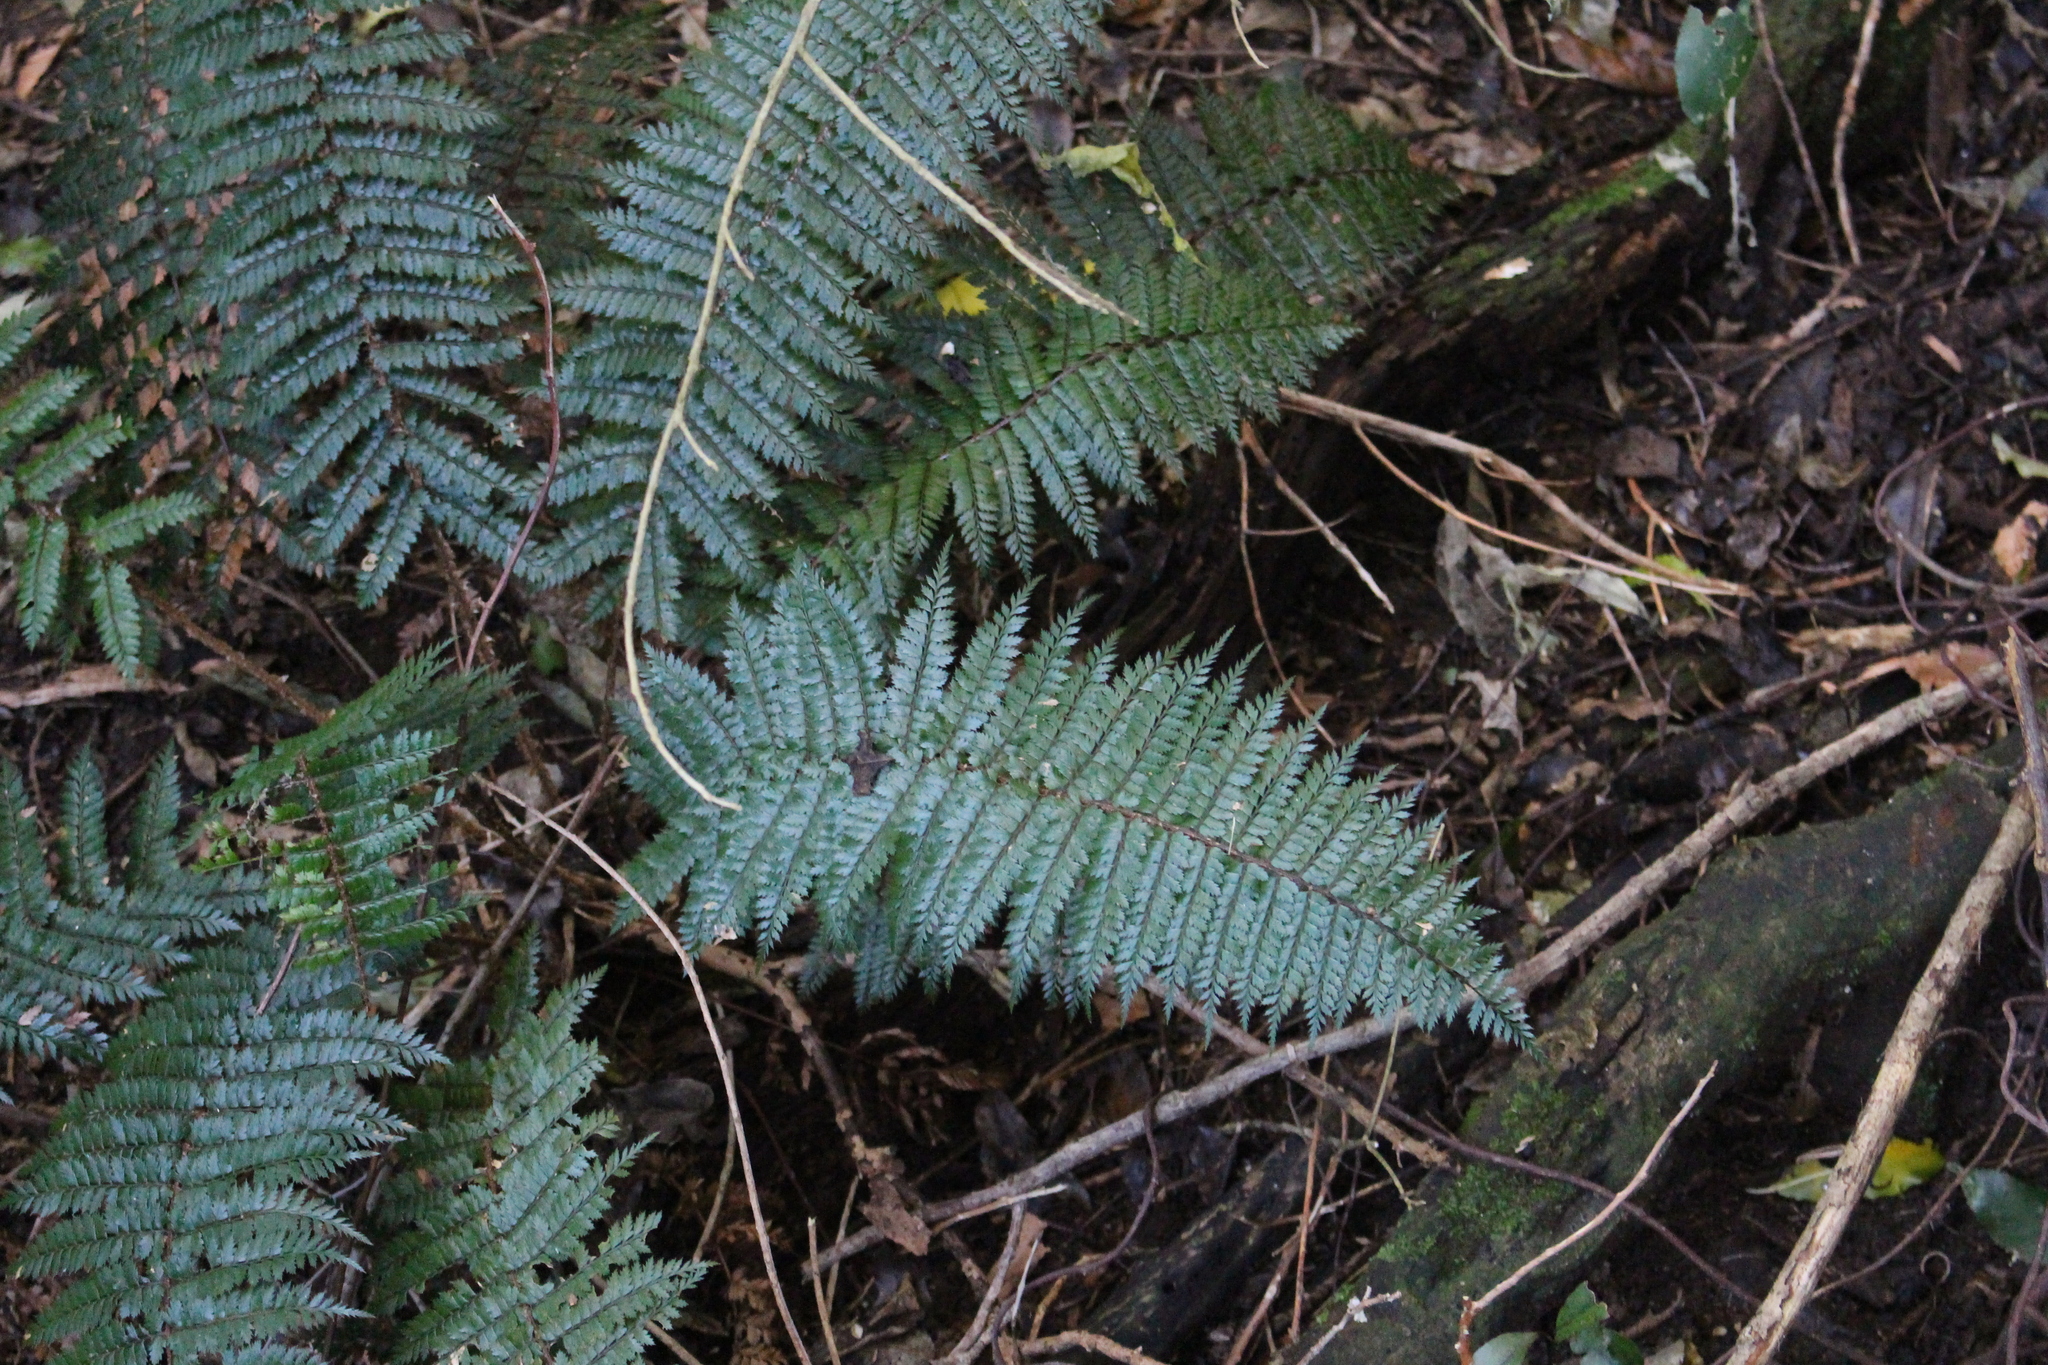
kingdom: Plantae
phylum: Tracheophyta
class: Polypodiopsida
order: Polypodiales
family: Dryopteridaceae
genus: Polystichum
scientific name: Polystichum vestitum
